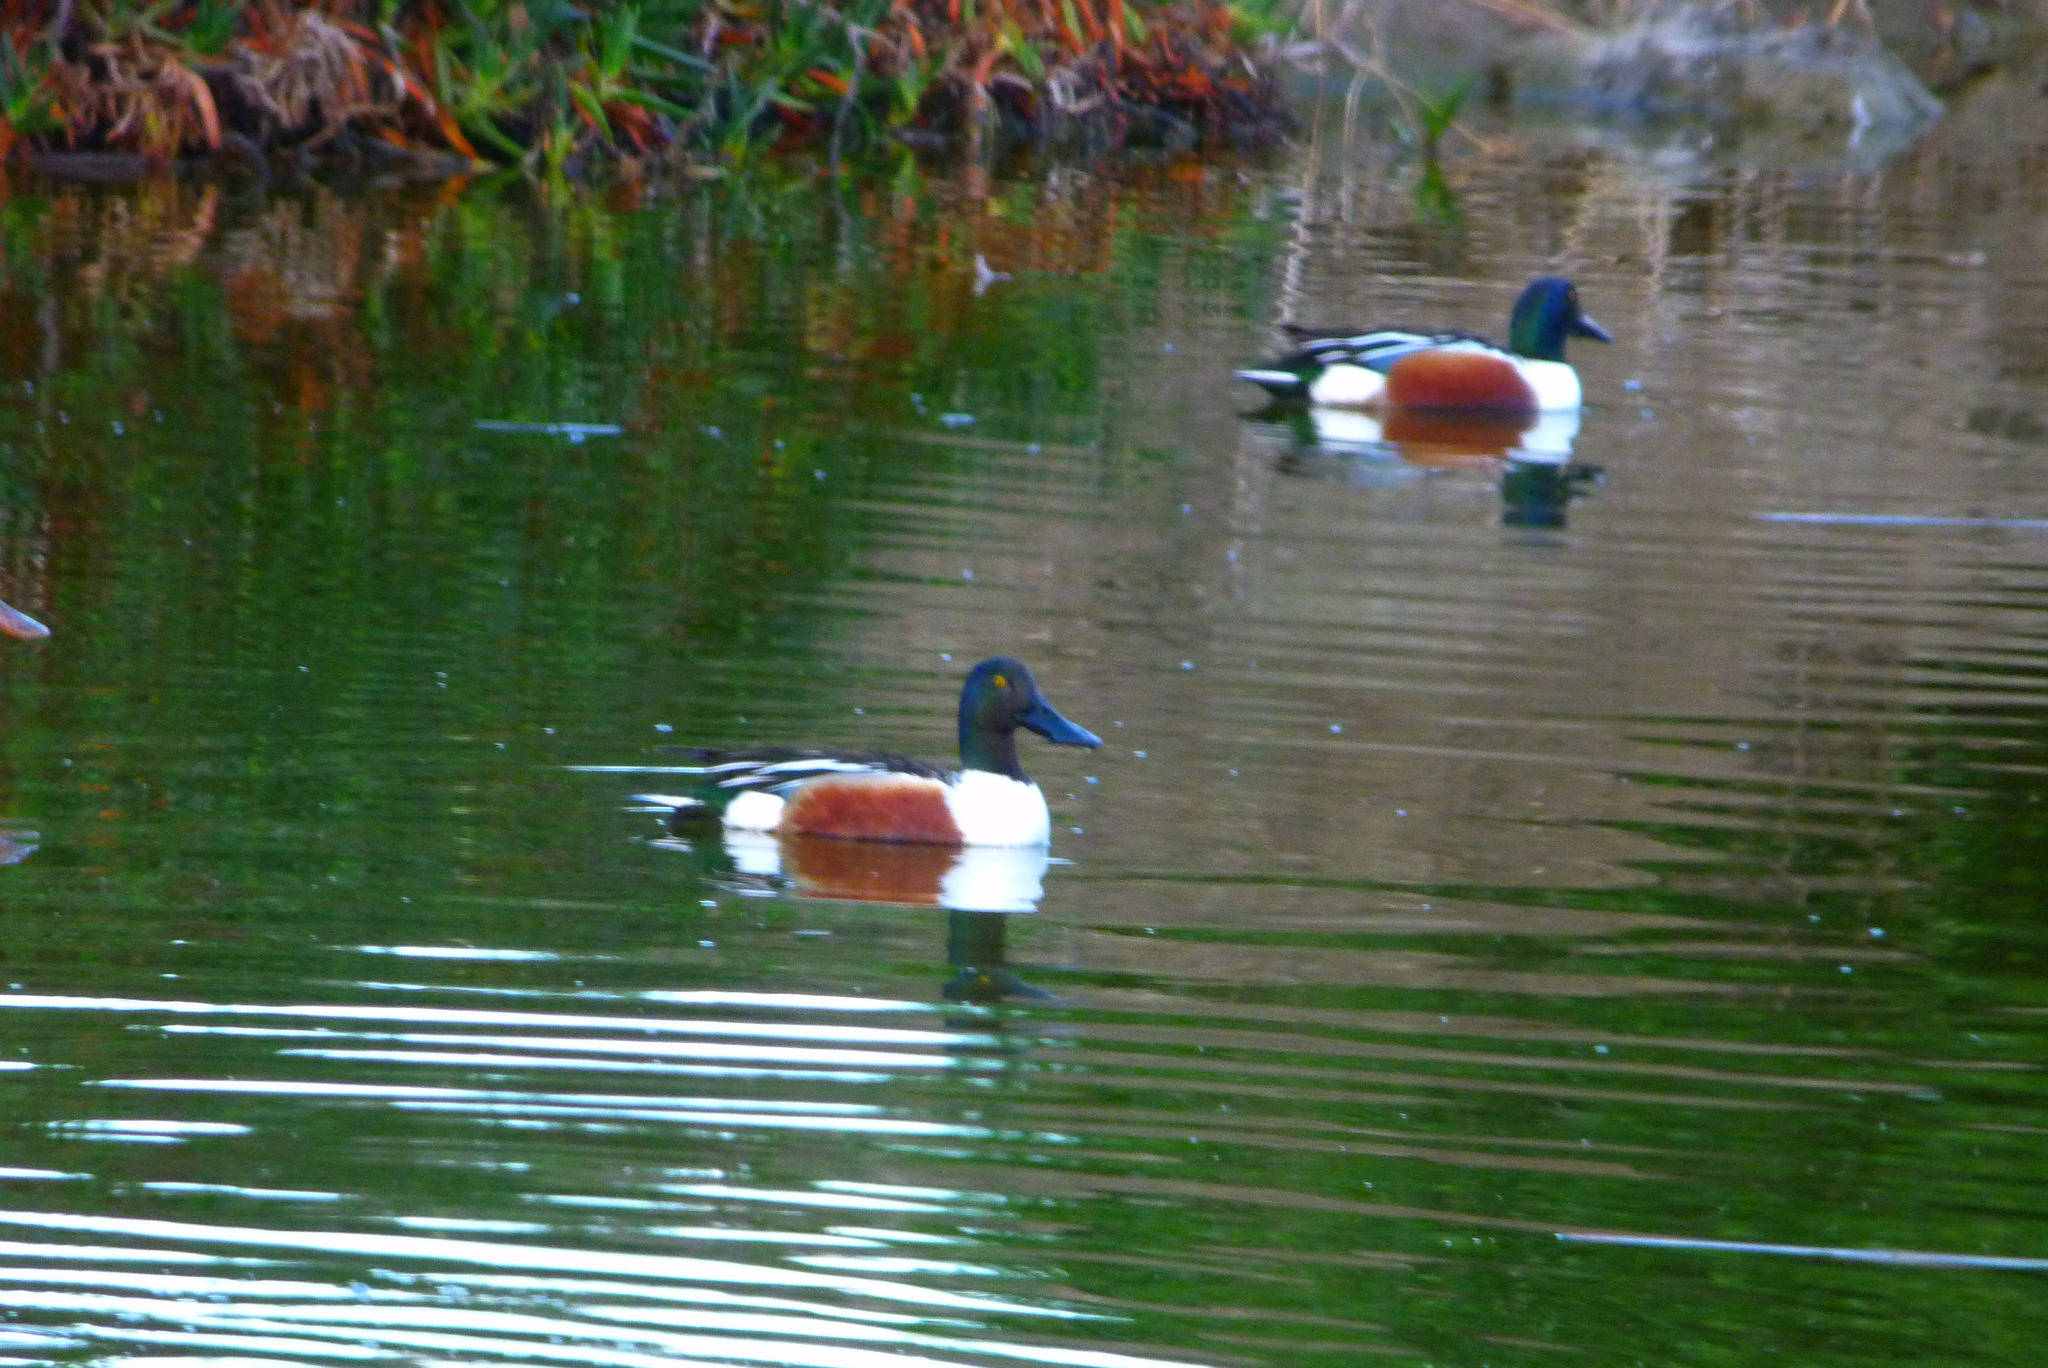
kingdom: Animalia
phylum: Chordata
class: Aves
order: Anseriformes
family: Anatidae
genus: Spatula
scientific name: Spatula clypeata
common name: Northern shoveler
